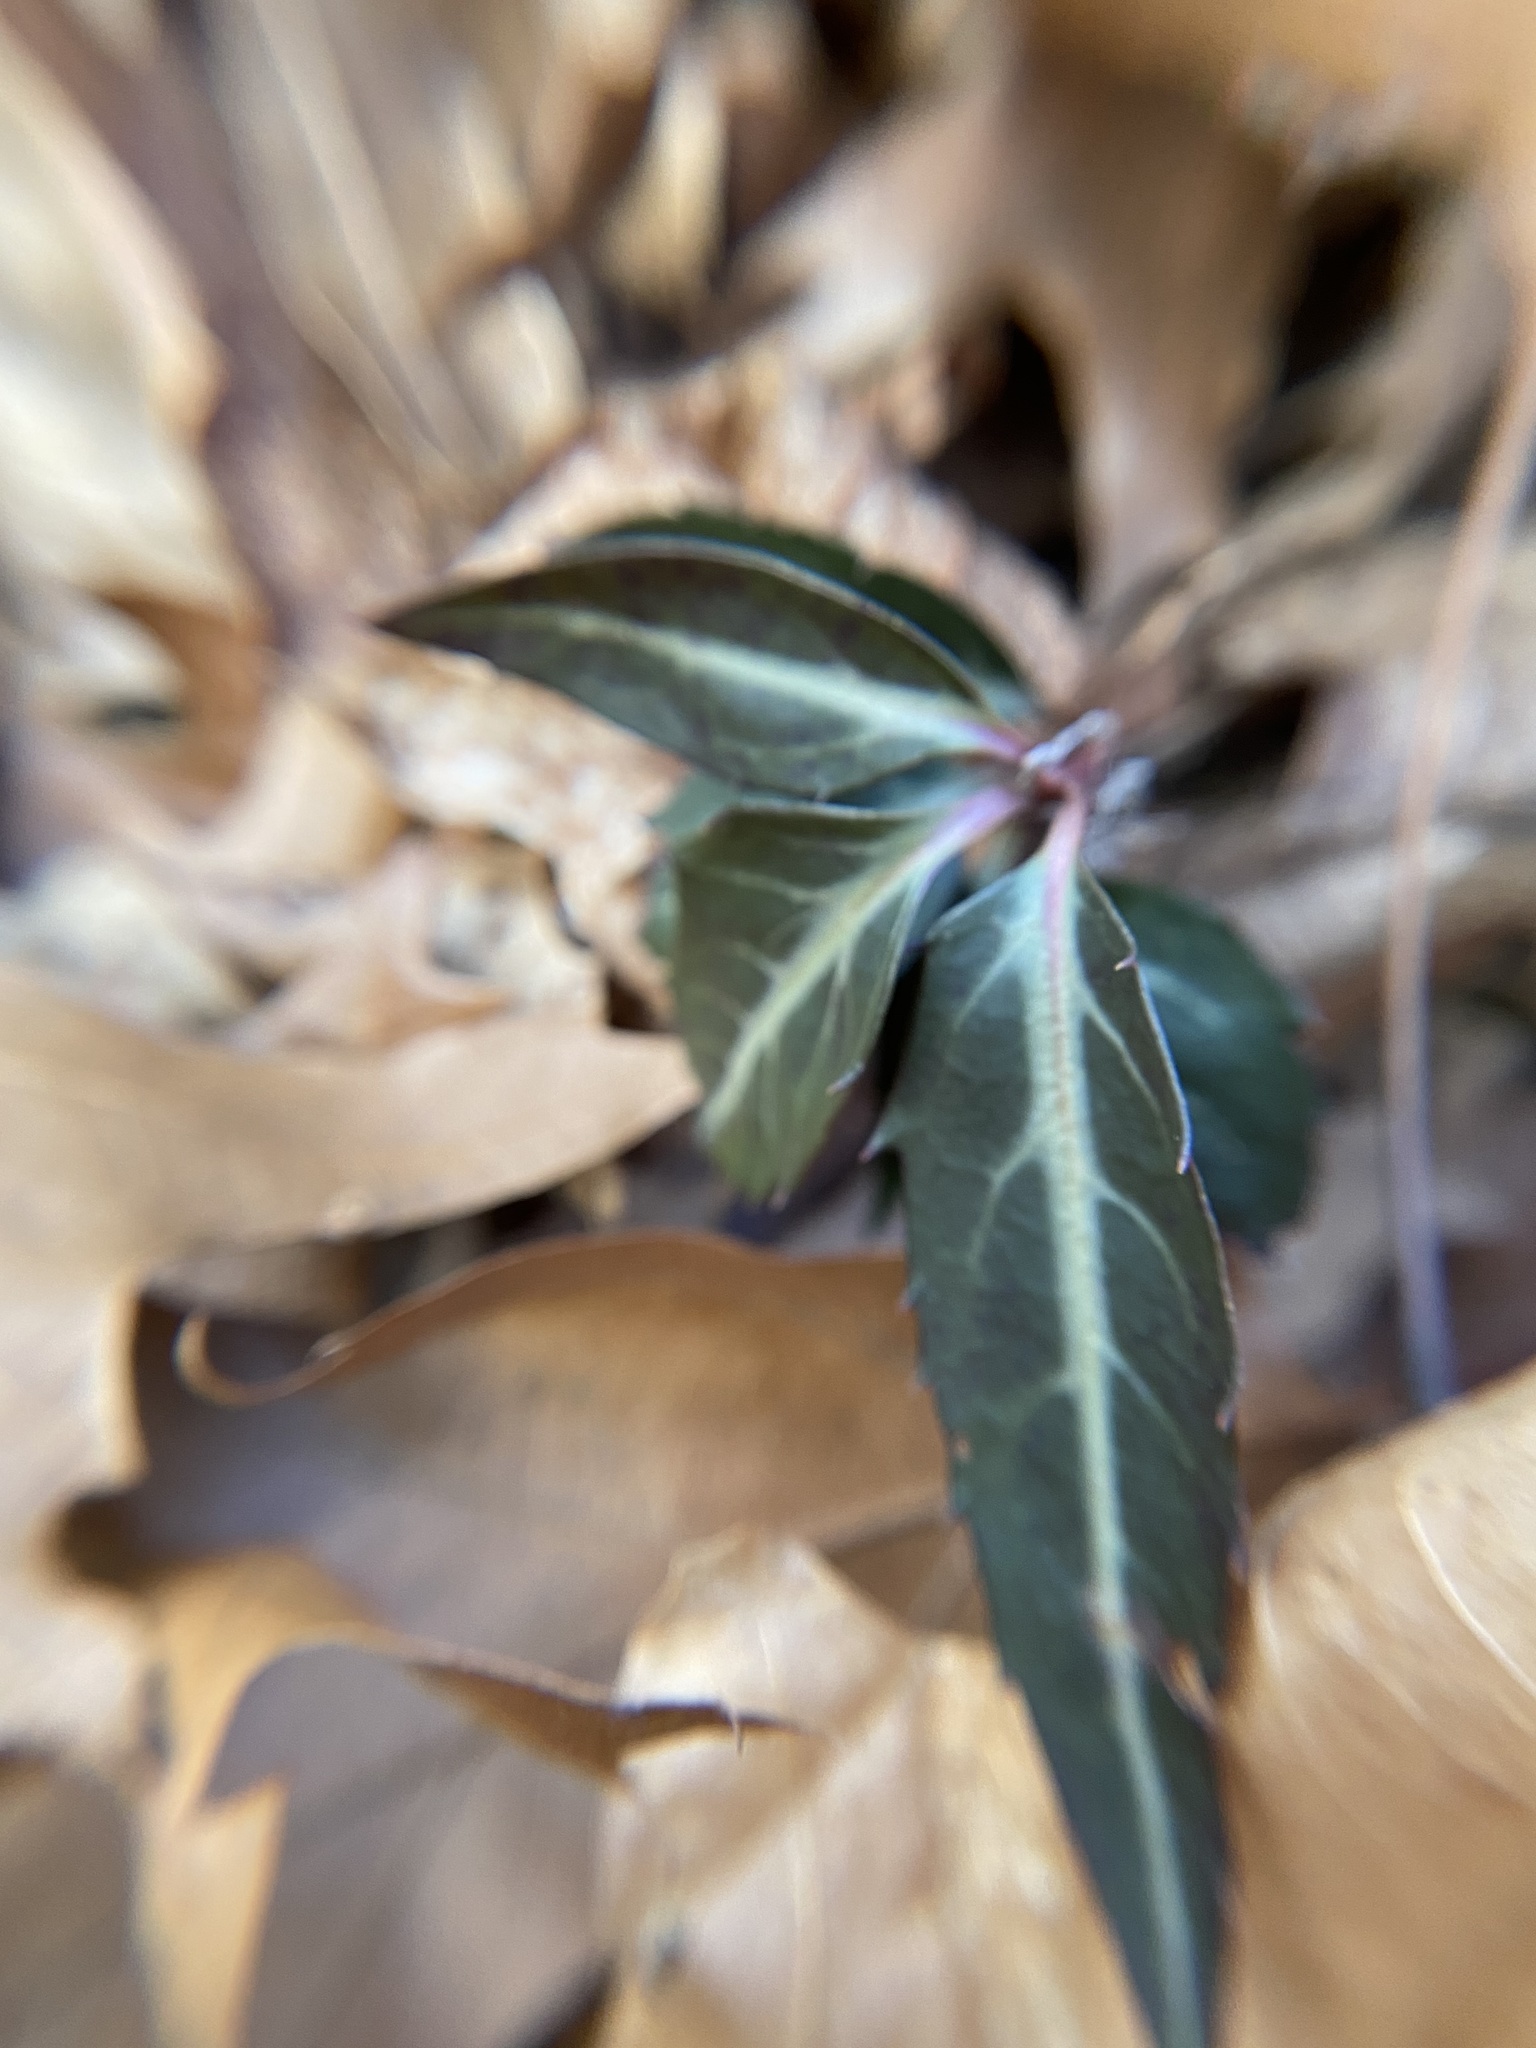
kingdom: Plantae
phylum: Tracheophyta
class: Magnoliopsida
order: Ericales
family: Ericaceae
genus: Chimaphila
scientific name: Chimaphila maculata
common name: Spotted pipsissewa
